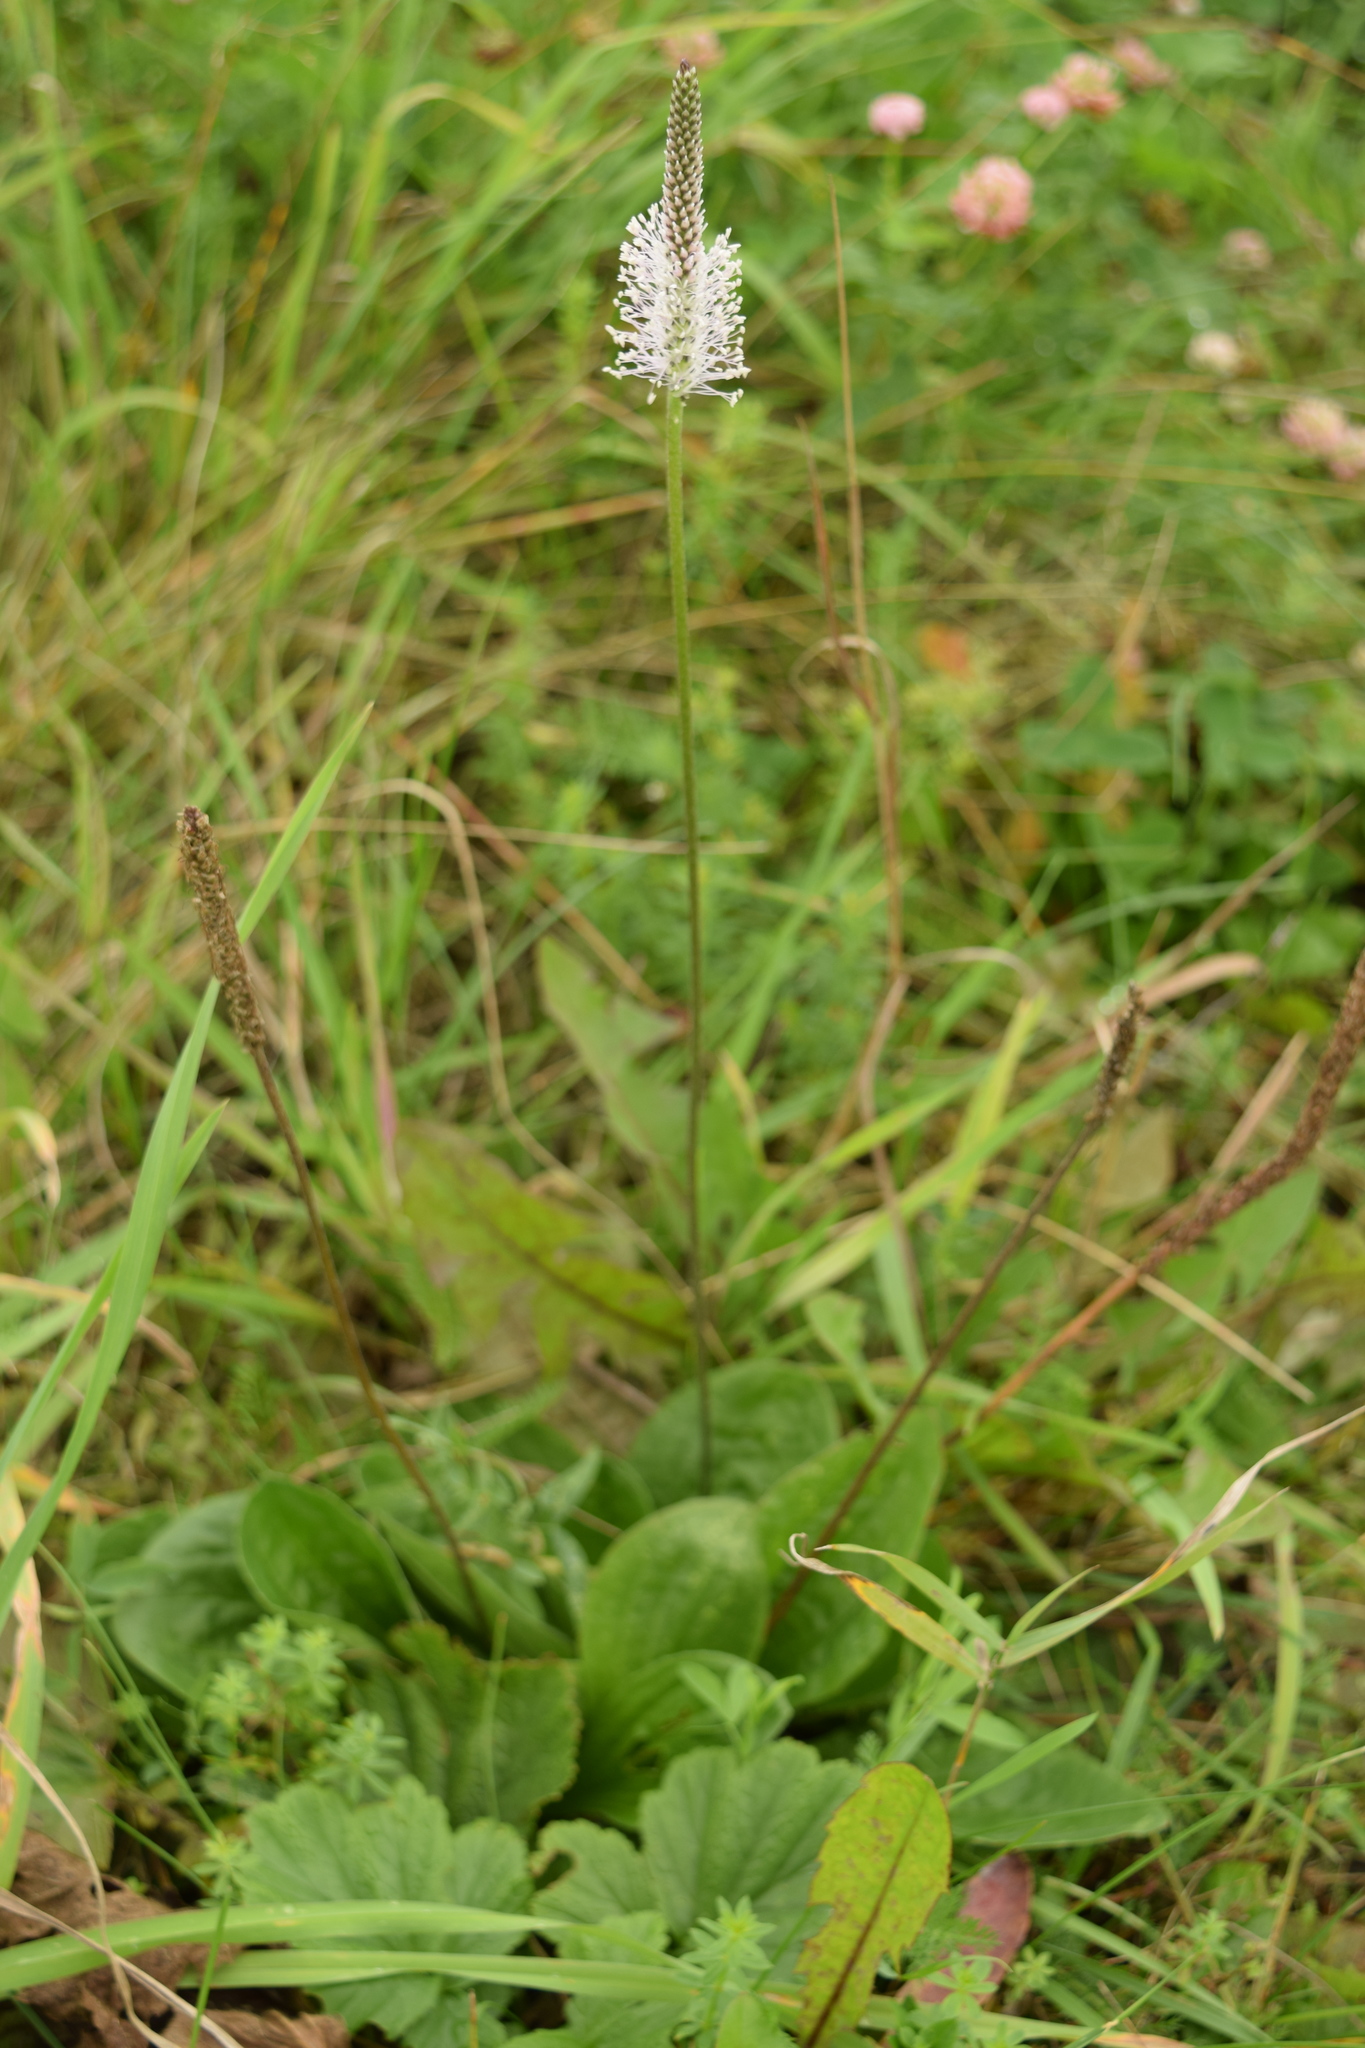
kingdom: Plantae
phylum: Tracheophyta
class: Magnoliopsida
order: Lamiales
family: Plantaginaceae
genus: Plantago
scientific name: Plantago media
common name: Hoary plantain
